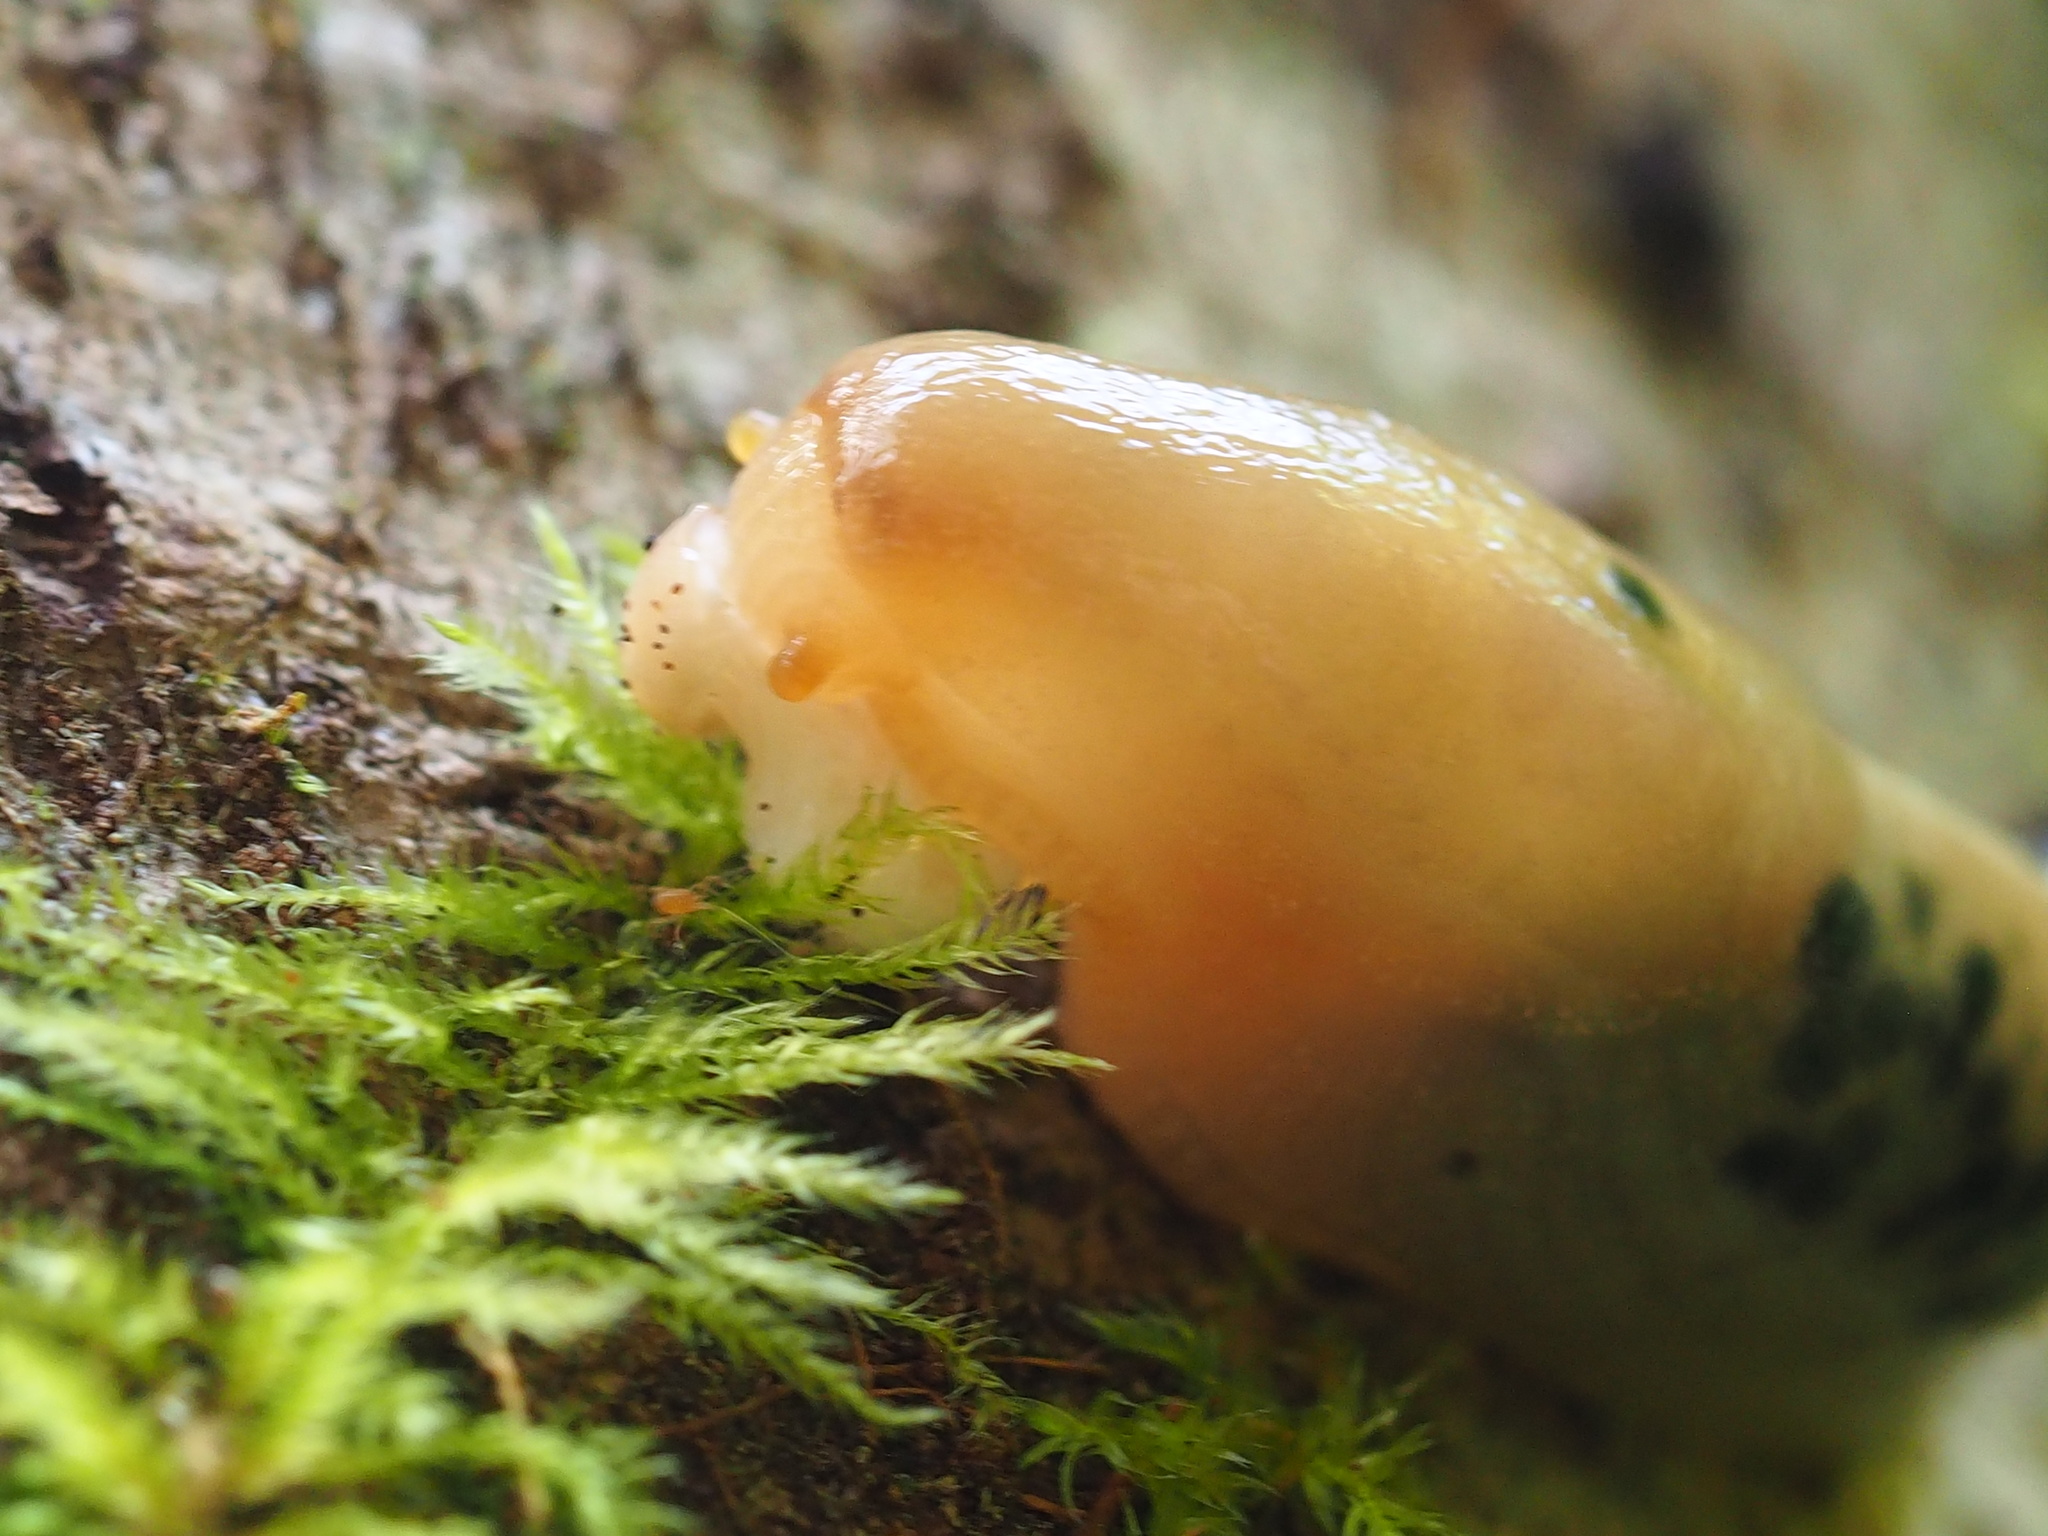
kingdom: Animalia
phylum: Mollusca
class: Gastropoda
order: Stylommatophora
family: Ariolimacidae
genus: Ariolimax
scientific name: Ariolimax columbianus
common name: Pacific banana slug
